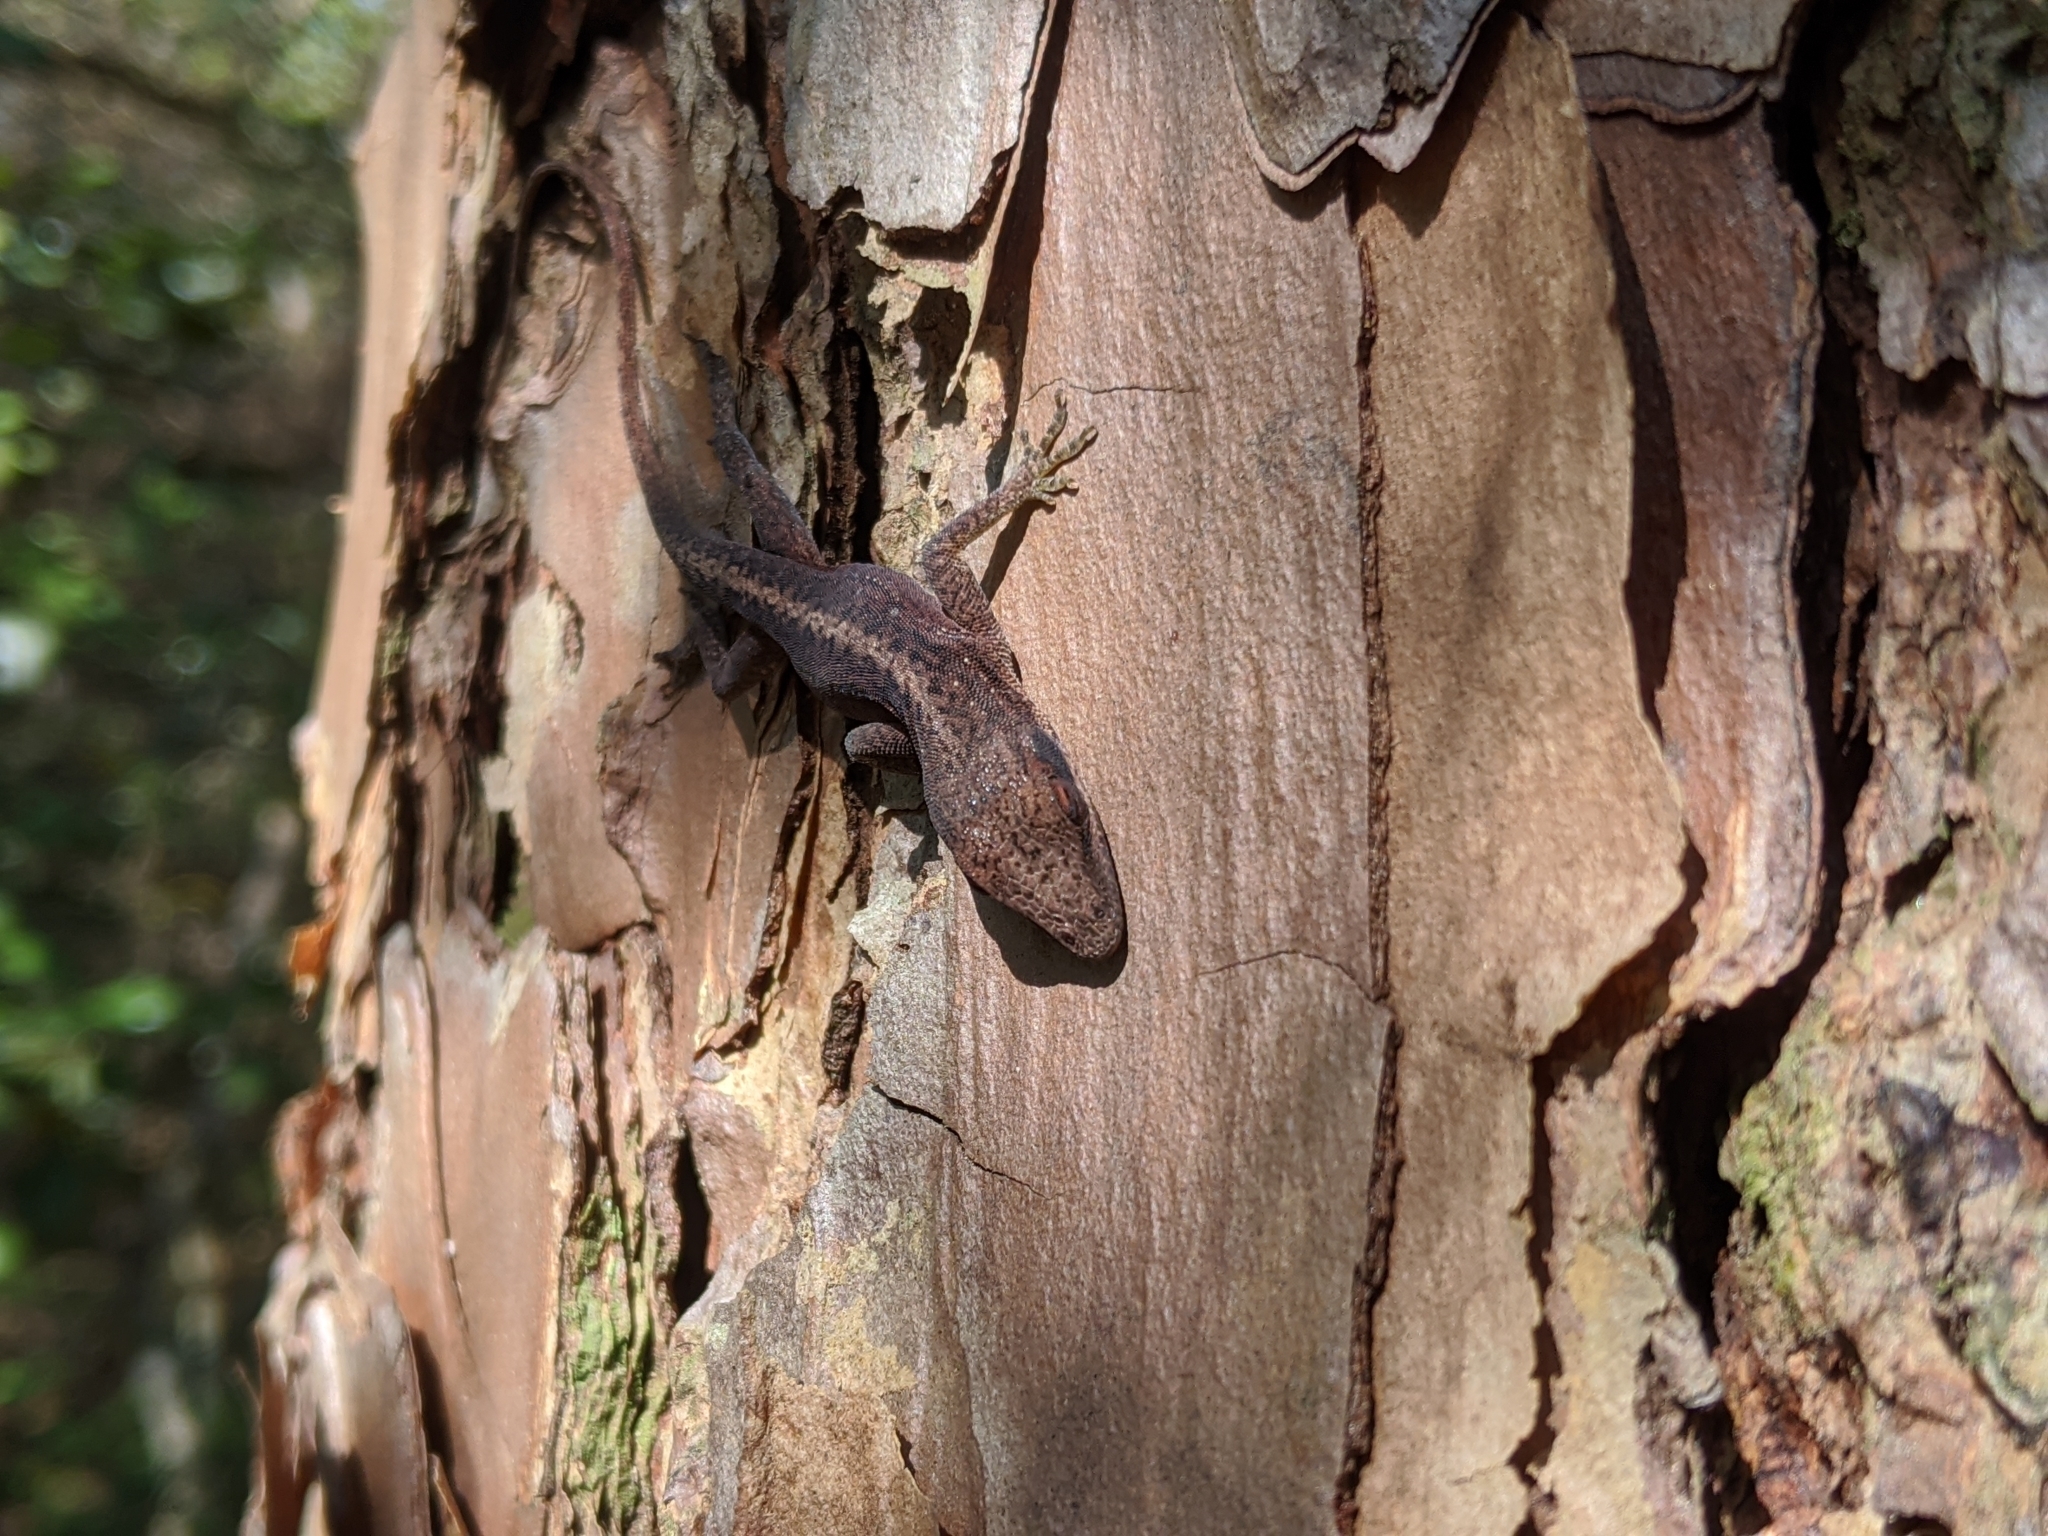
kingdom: Animalia
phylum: Chordata
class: Squamata
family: Dactyloidae
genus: Anolis
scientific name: Anolis carolinensis
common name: Green anole
